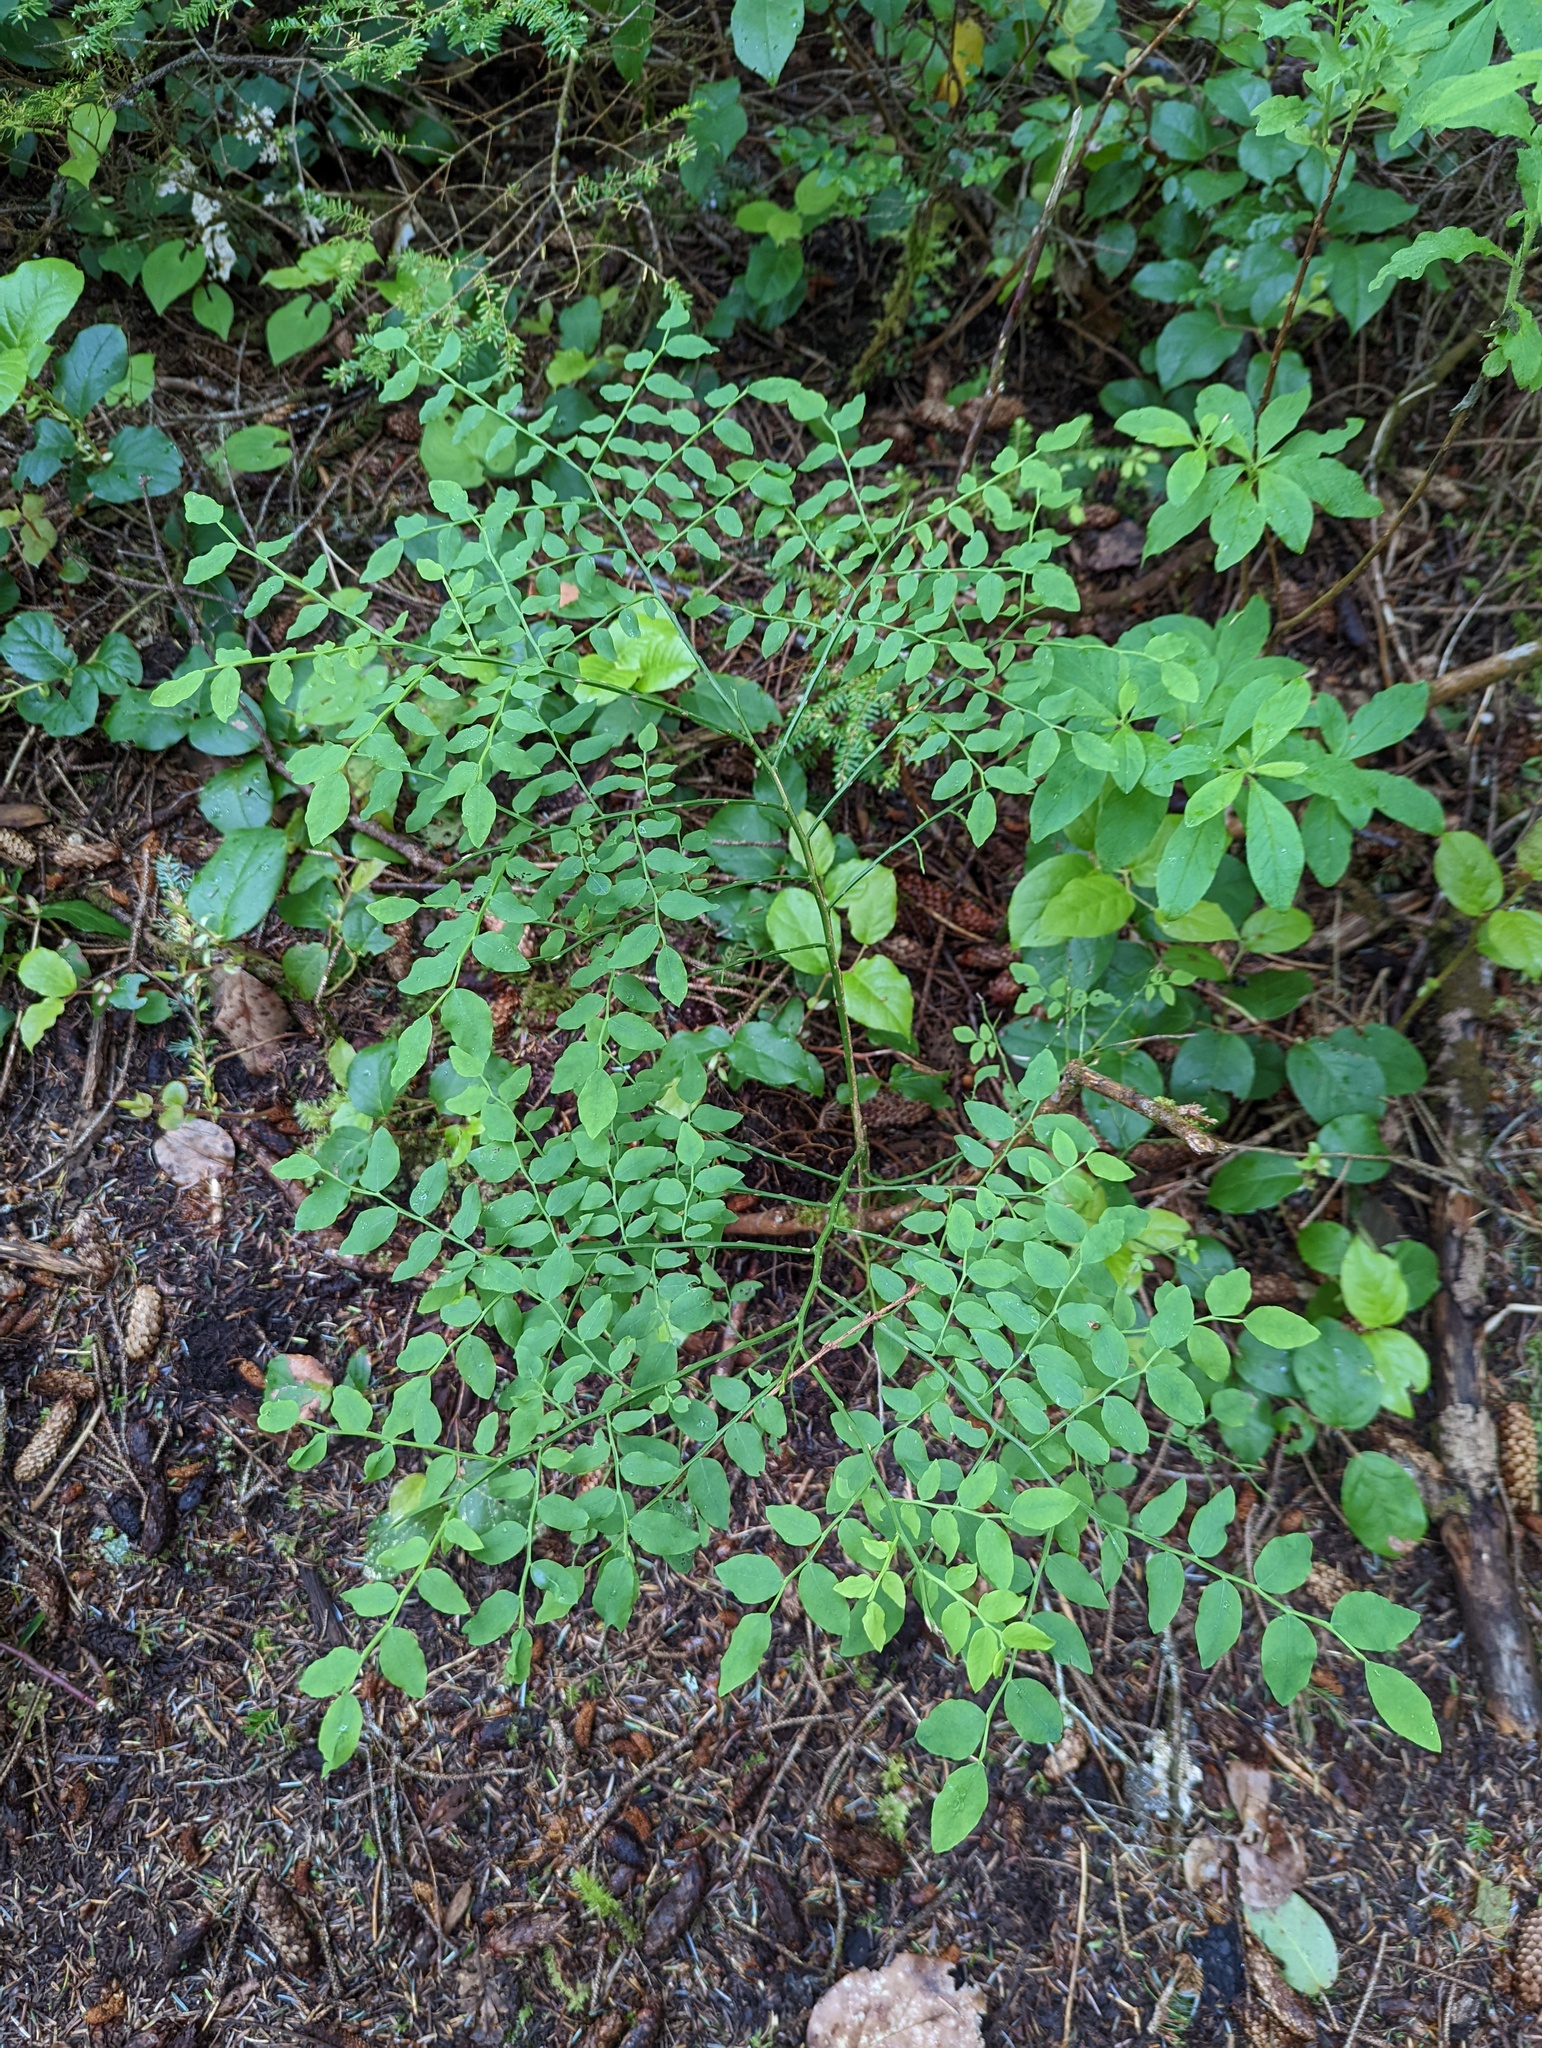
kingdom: Plantae
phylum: Tracheophyta
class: Magnoliopsida
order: Ericales
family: Ericaceae
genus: Vaccinium
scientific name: Vaccinium parvifolium
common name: Red-huckleberry
